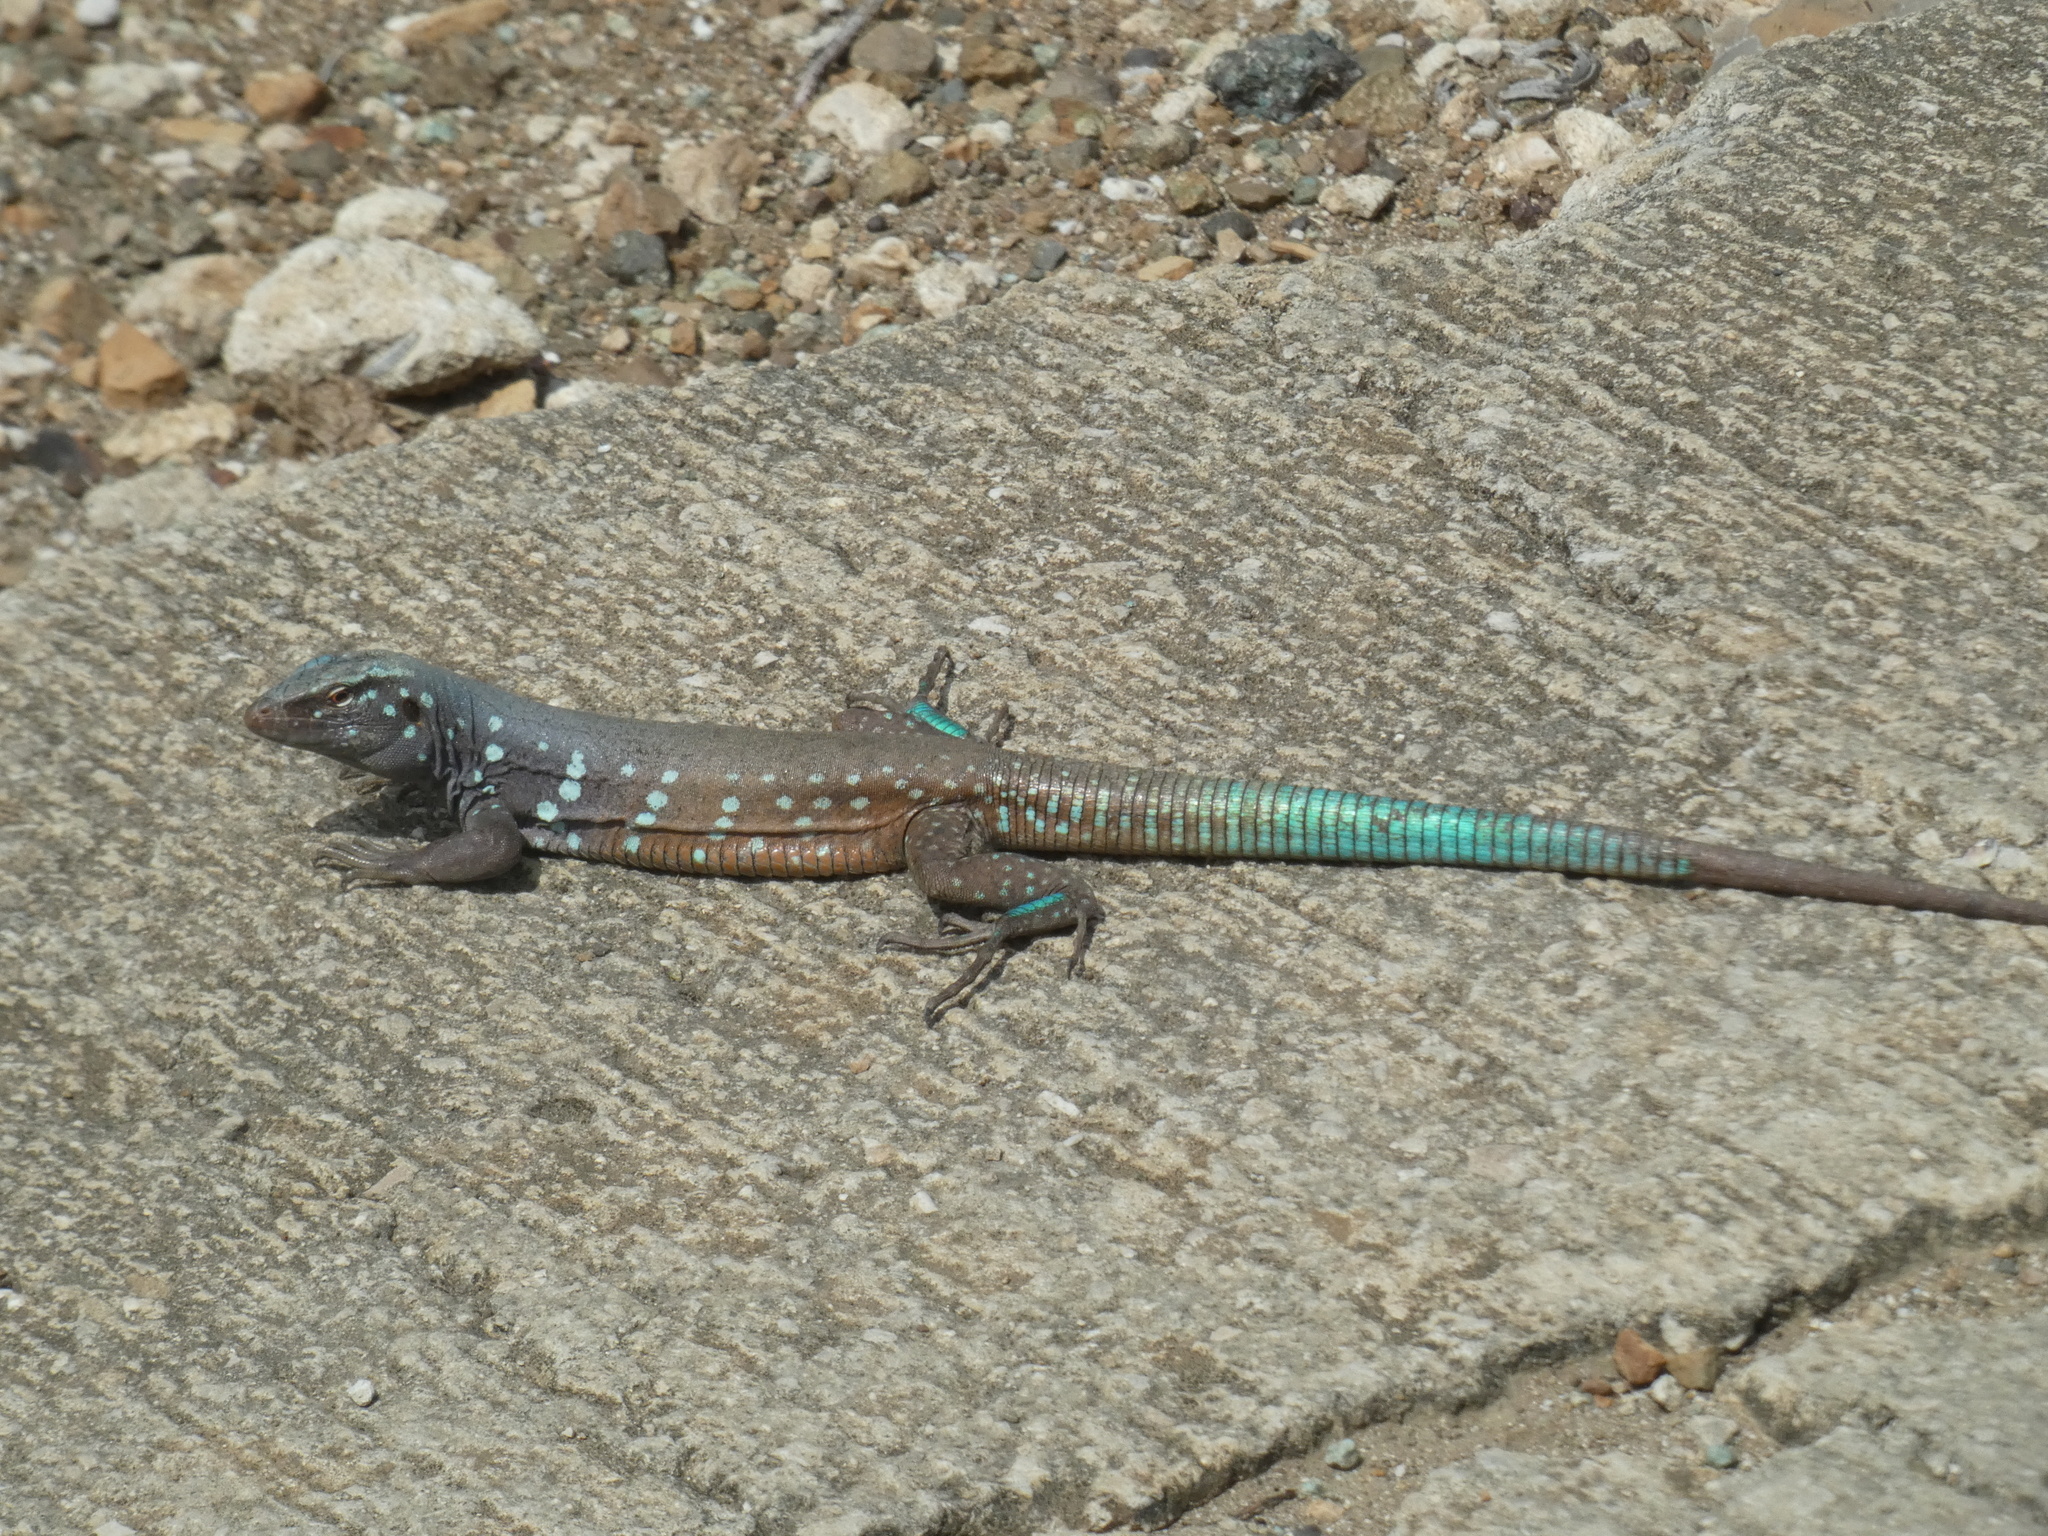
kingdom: Animalia
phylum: Chordata
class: Squamata
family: Teiidae
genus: Cnemidophorus
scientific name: Cnemidophorus ruthveni
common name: Bonaire whiptail
